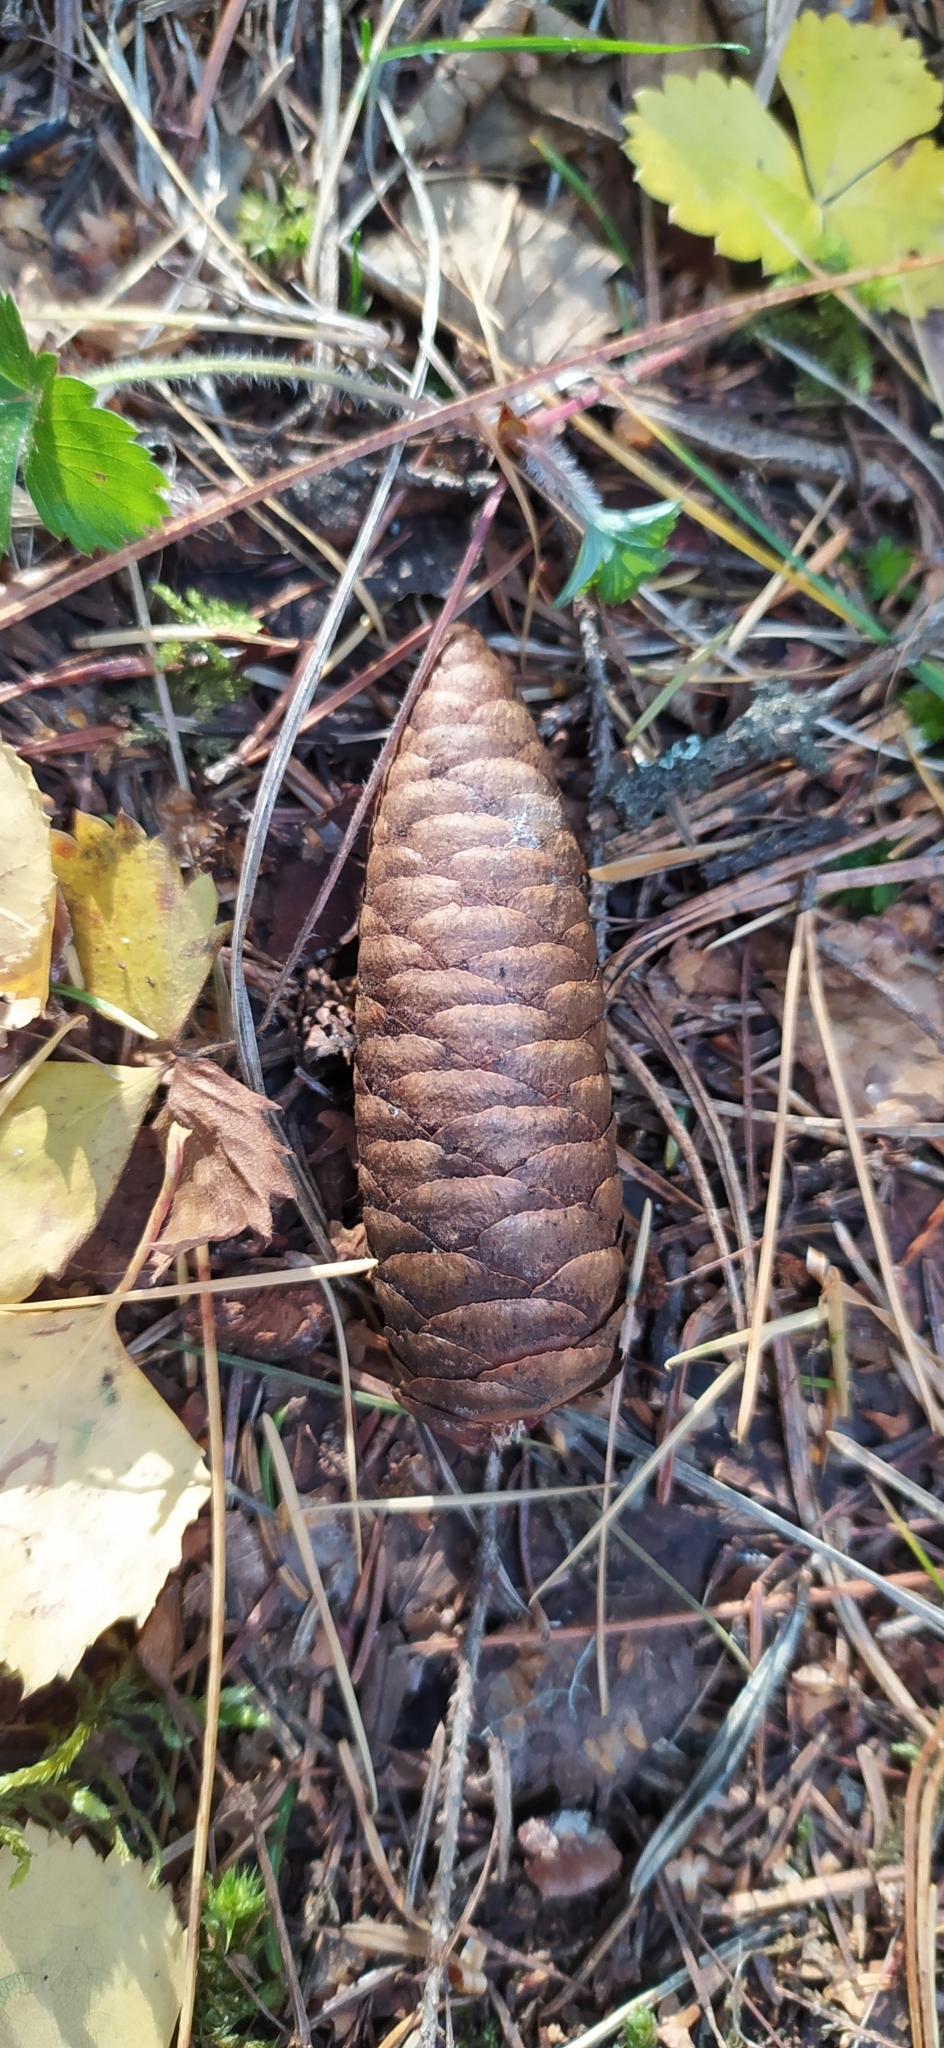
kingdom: Plantae
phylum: Tracheophyta
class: Pinopsida
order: Pinales
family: Pinaceae
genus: Picea
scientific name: Picea obovata
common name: Siberian spruce
